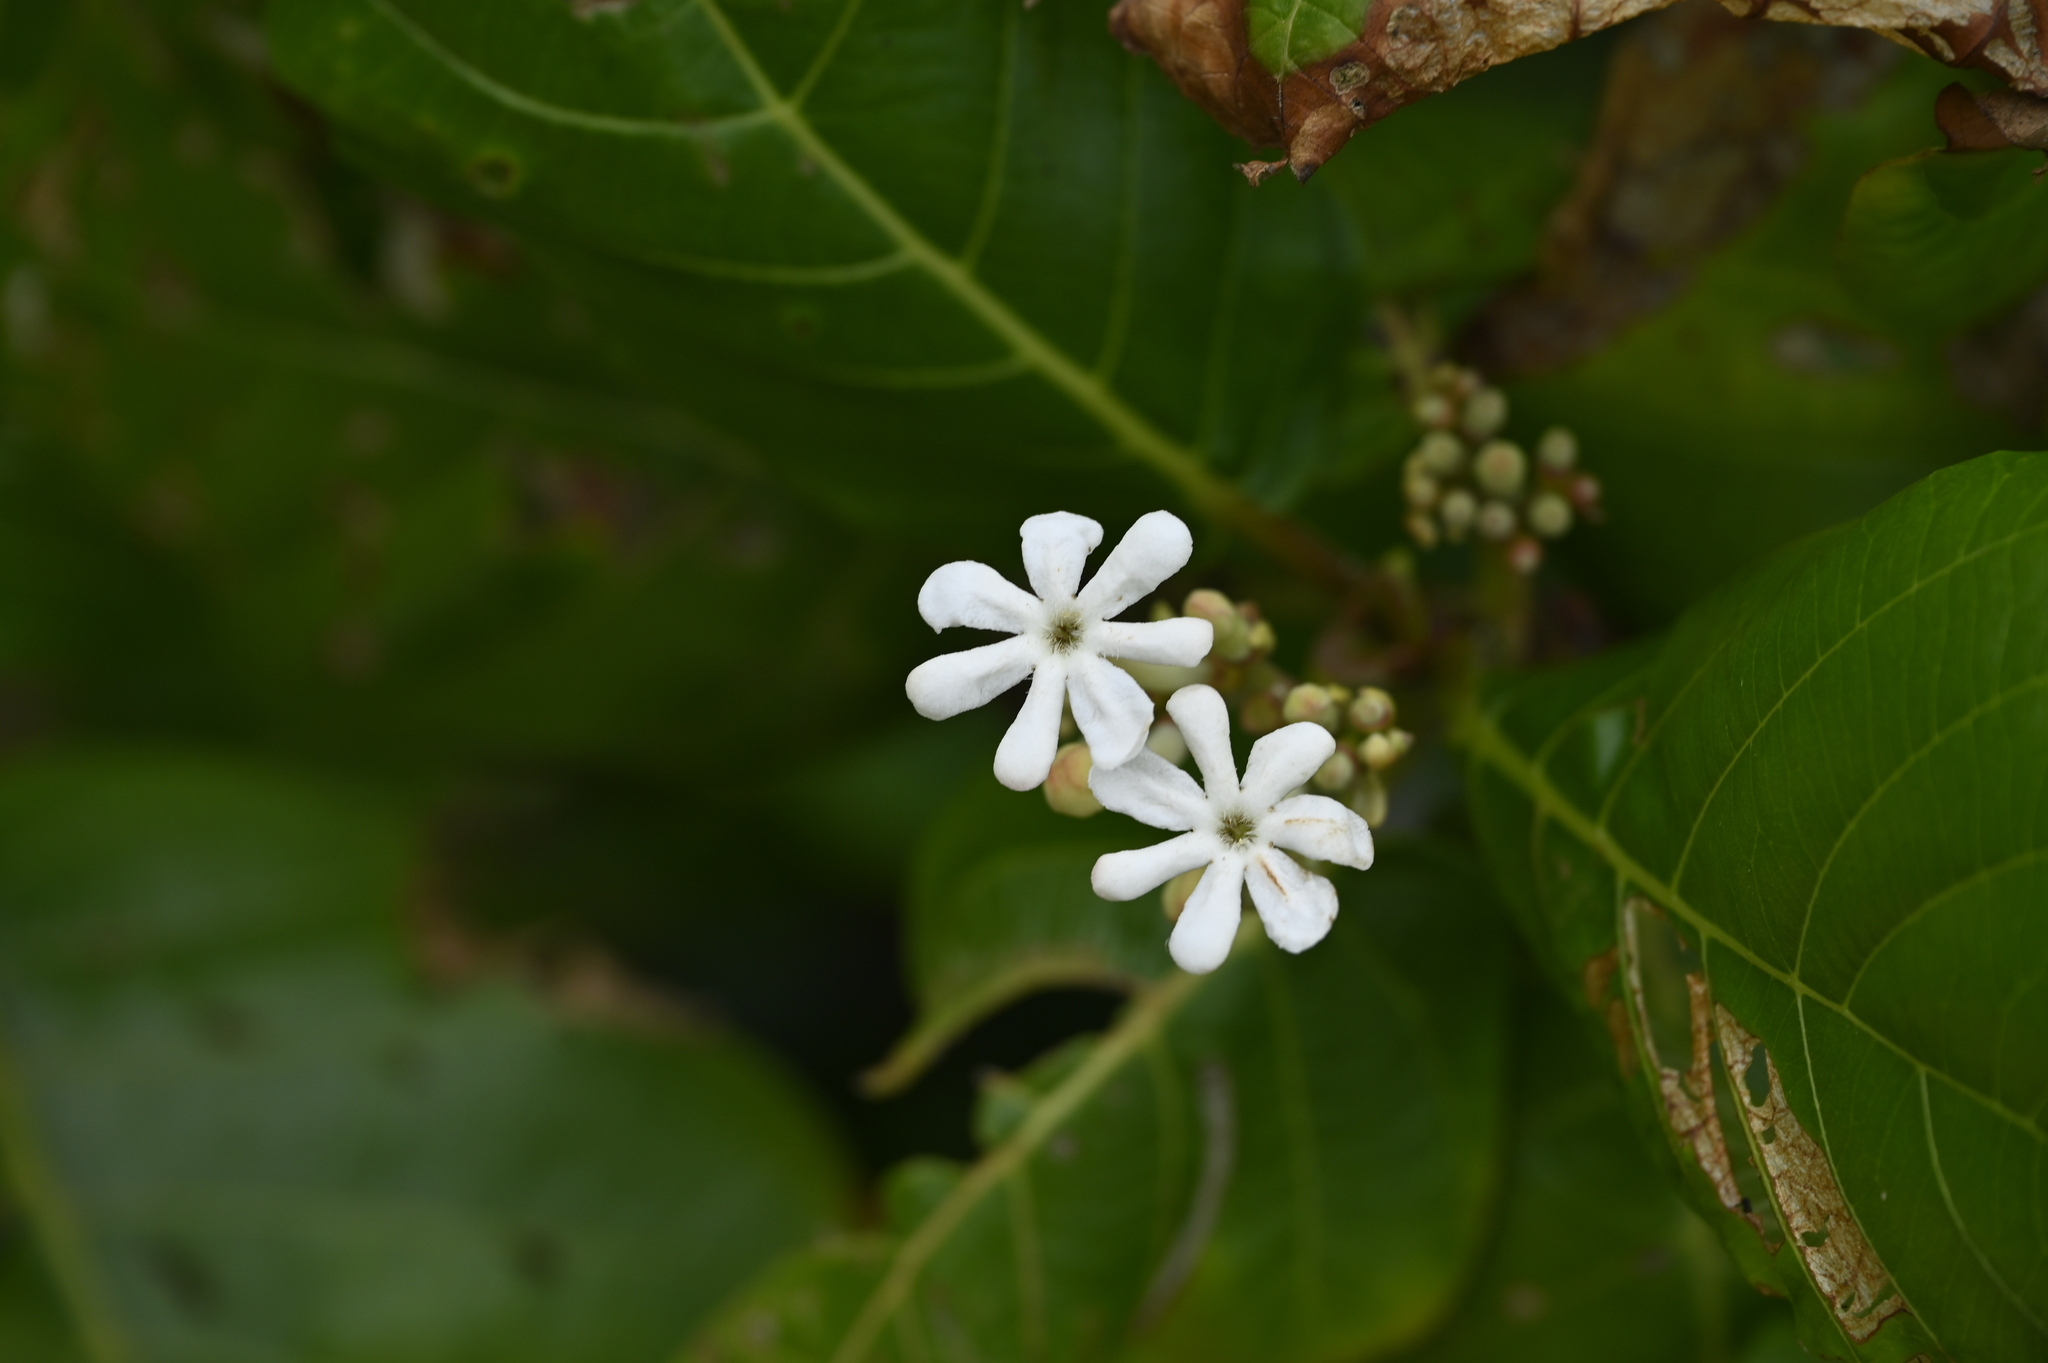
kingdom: Plantae
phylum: Tracheophyta
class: Magnoliopsida
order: Gentianales
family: Rubiaceae
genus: Guettarda
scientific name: Guettarda speciosa
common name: Sea randa
